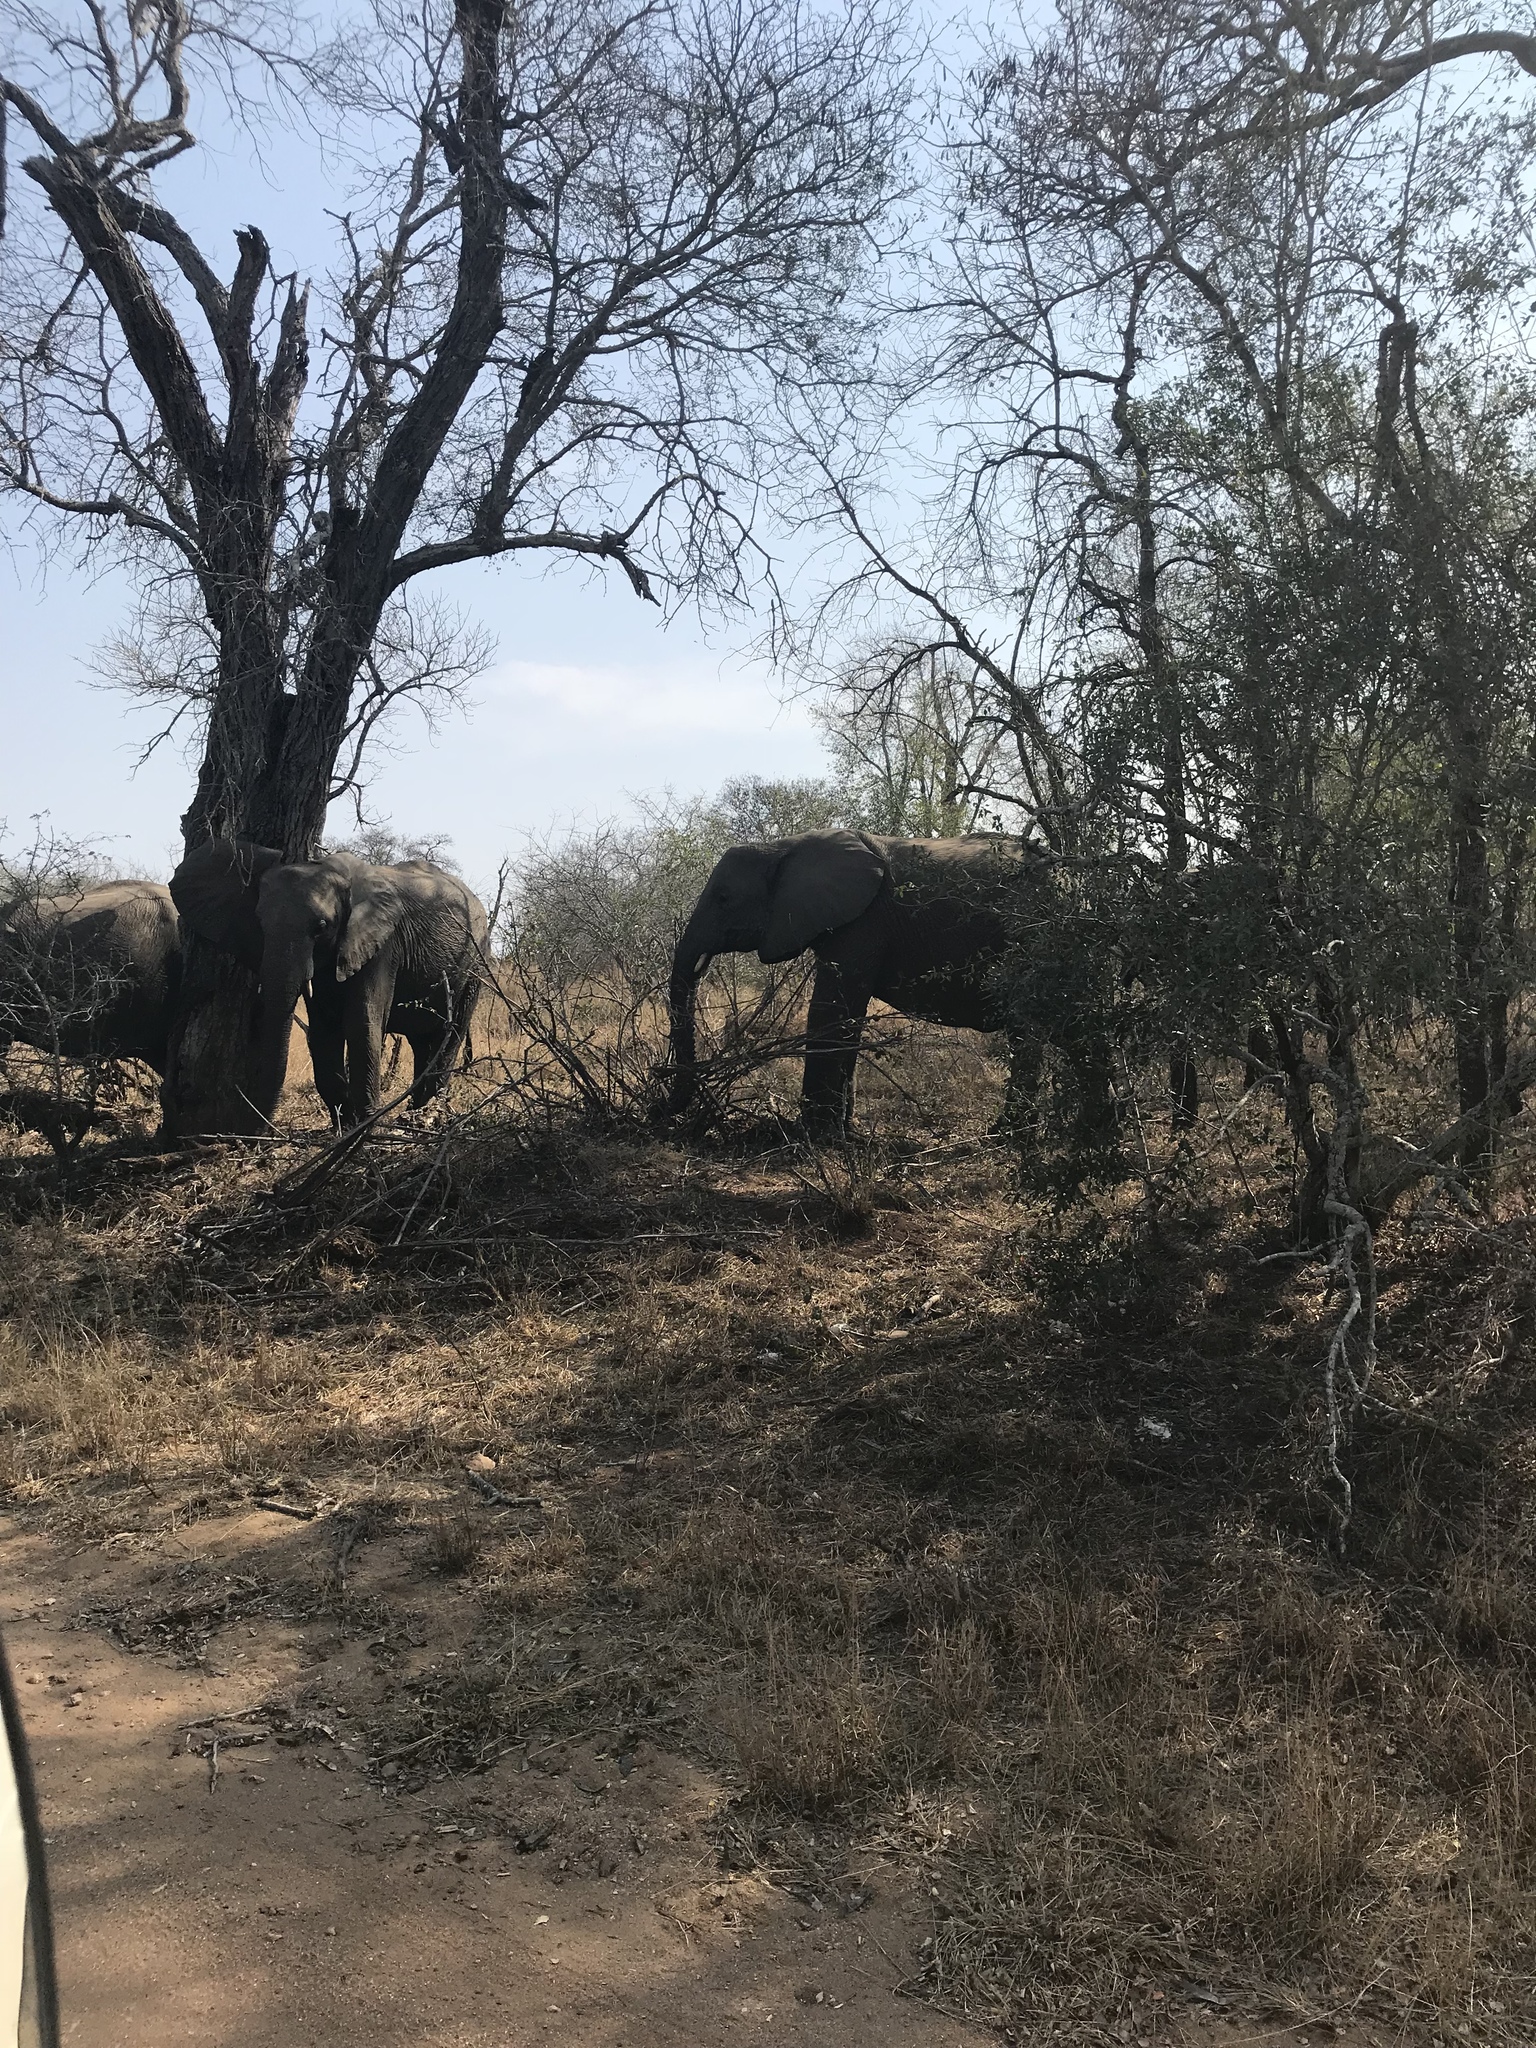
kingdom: Animalia
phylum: Chordata
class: Mammalia
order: Proboscidea
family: Elephantidae
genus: Loxodonta
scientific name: Loxodonta africana
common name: African elephant
